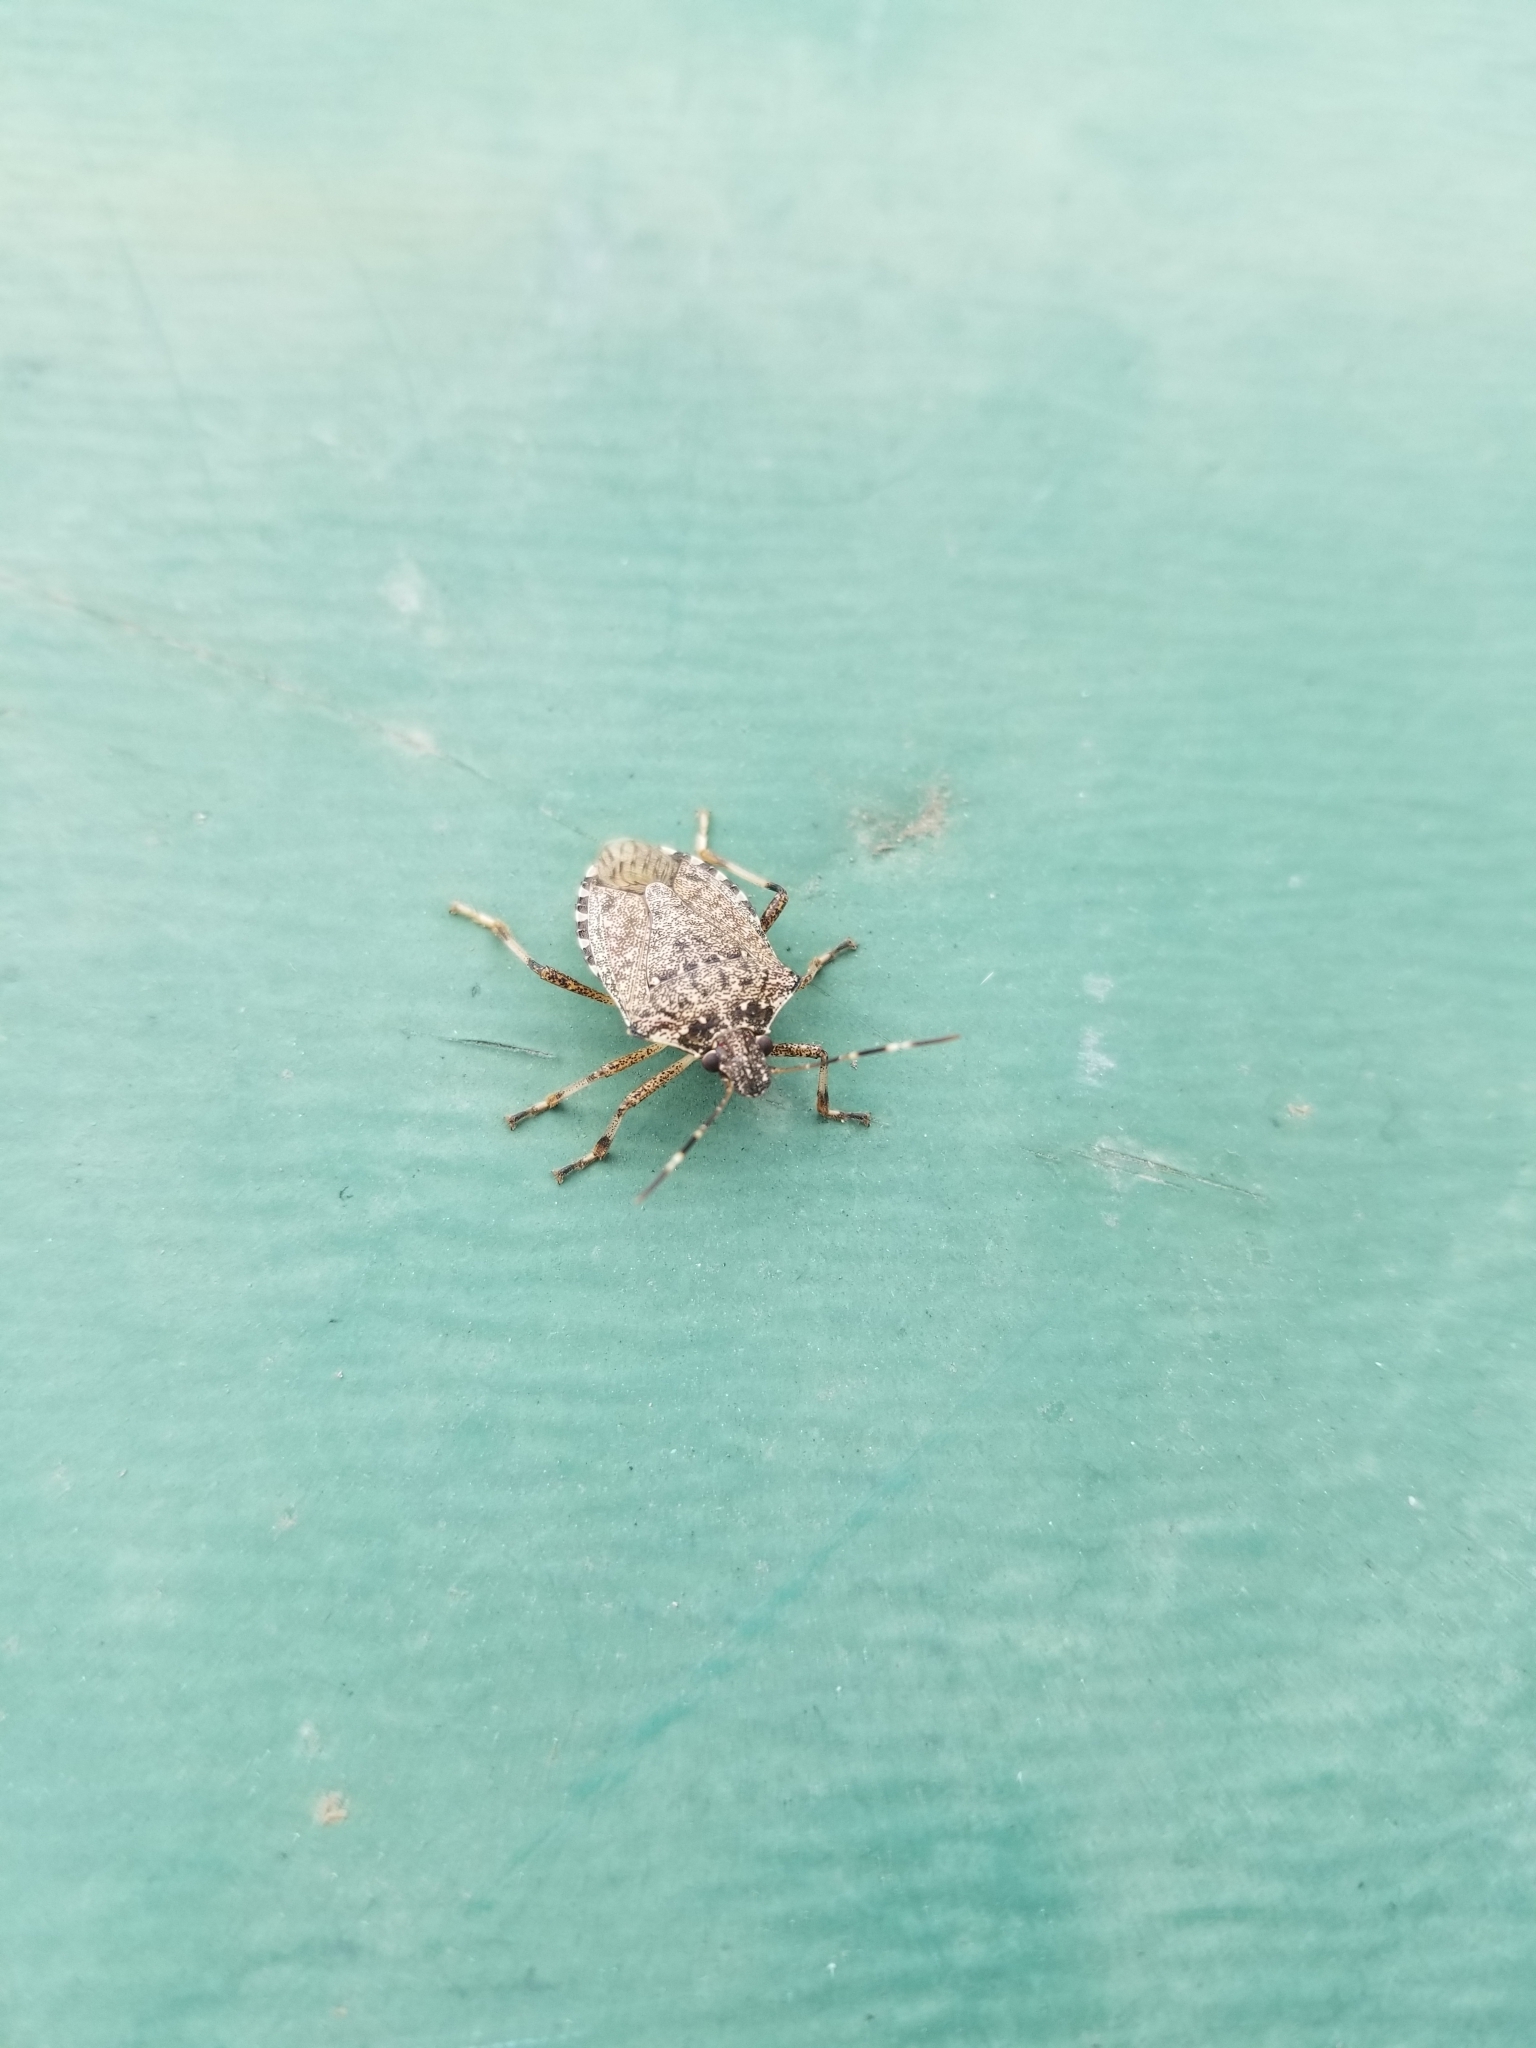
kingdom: Animalia
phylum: Arthropoda
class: Insecta
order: Hemiptera
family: Pentatomidae
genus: Halyomorpha
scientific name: Halyomorpha halys
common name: Brown marmorated stink bug
